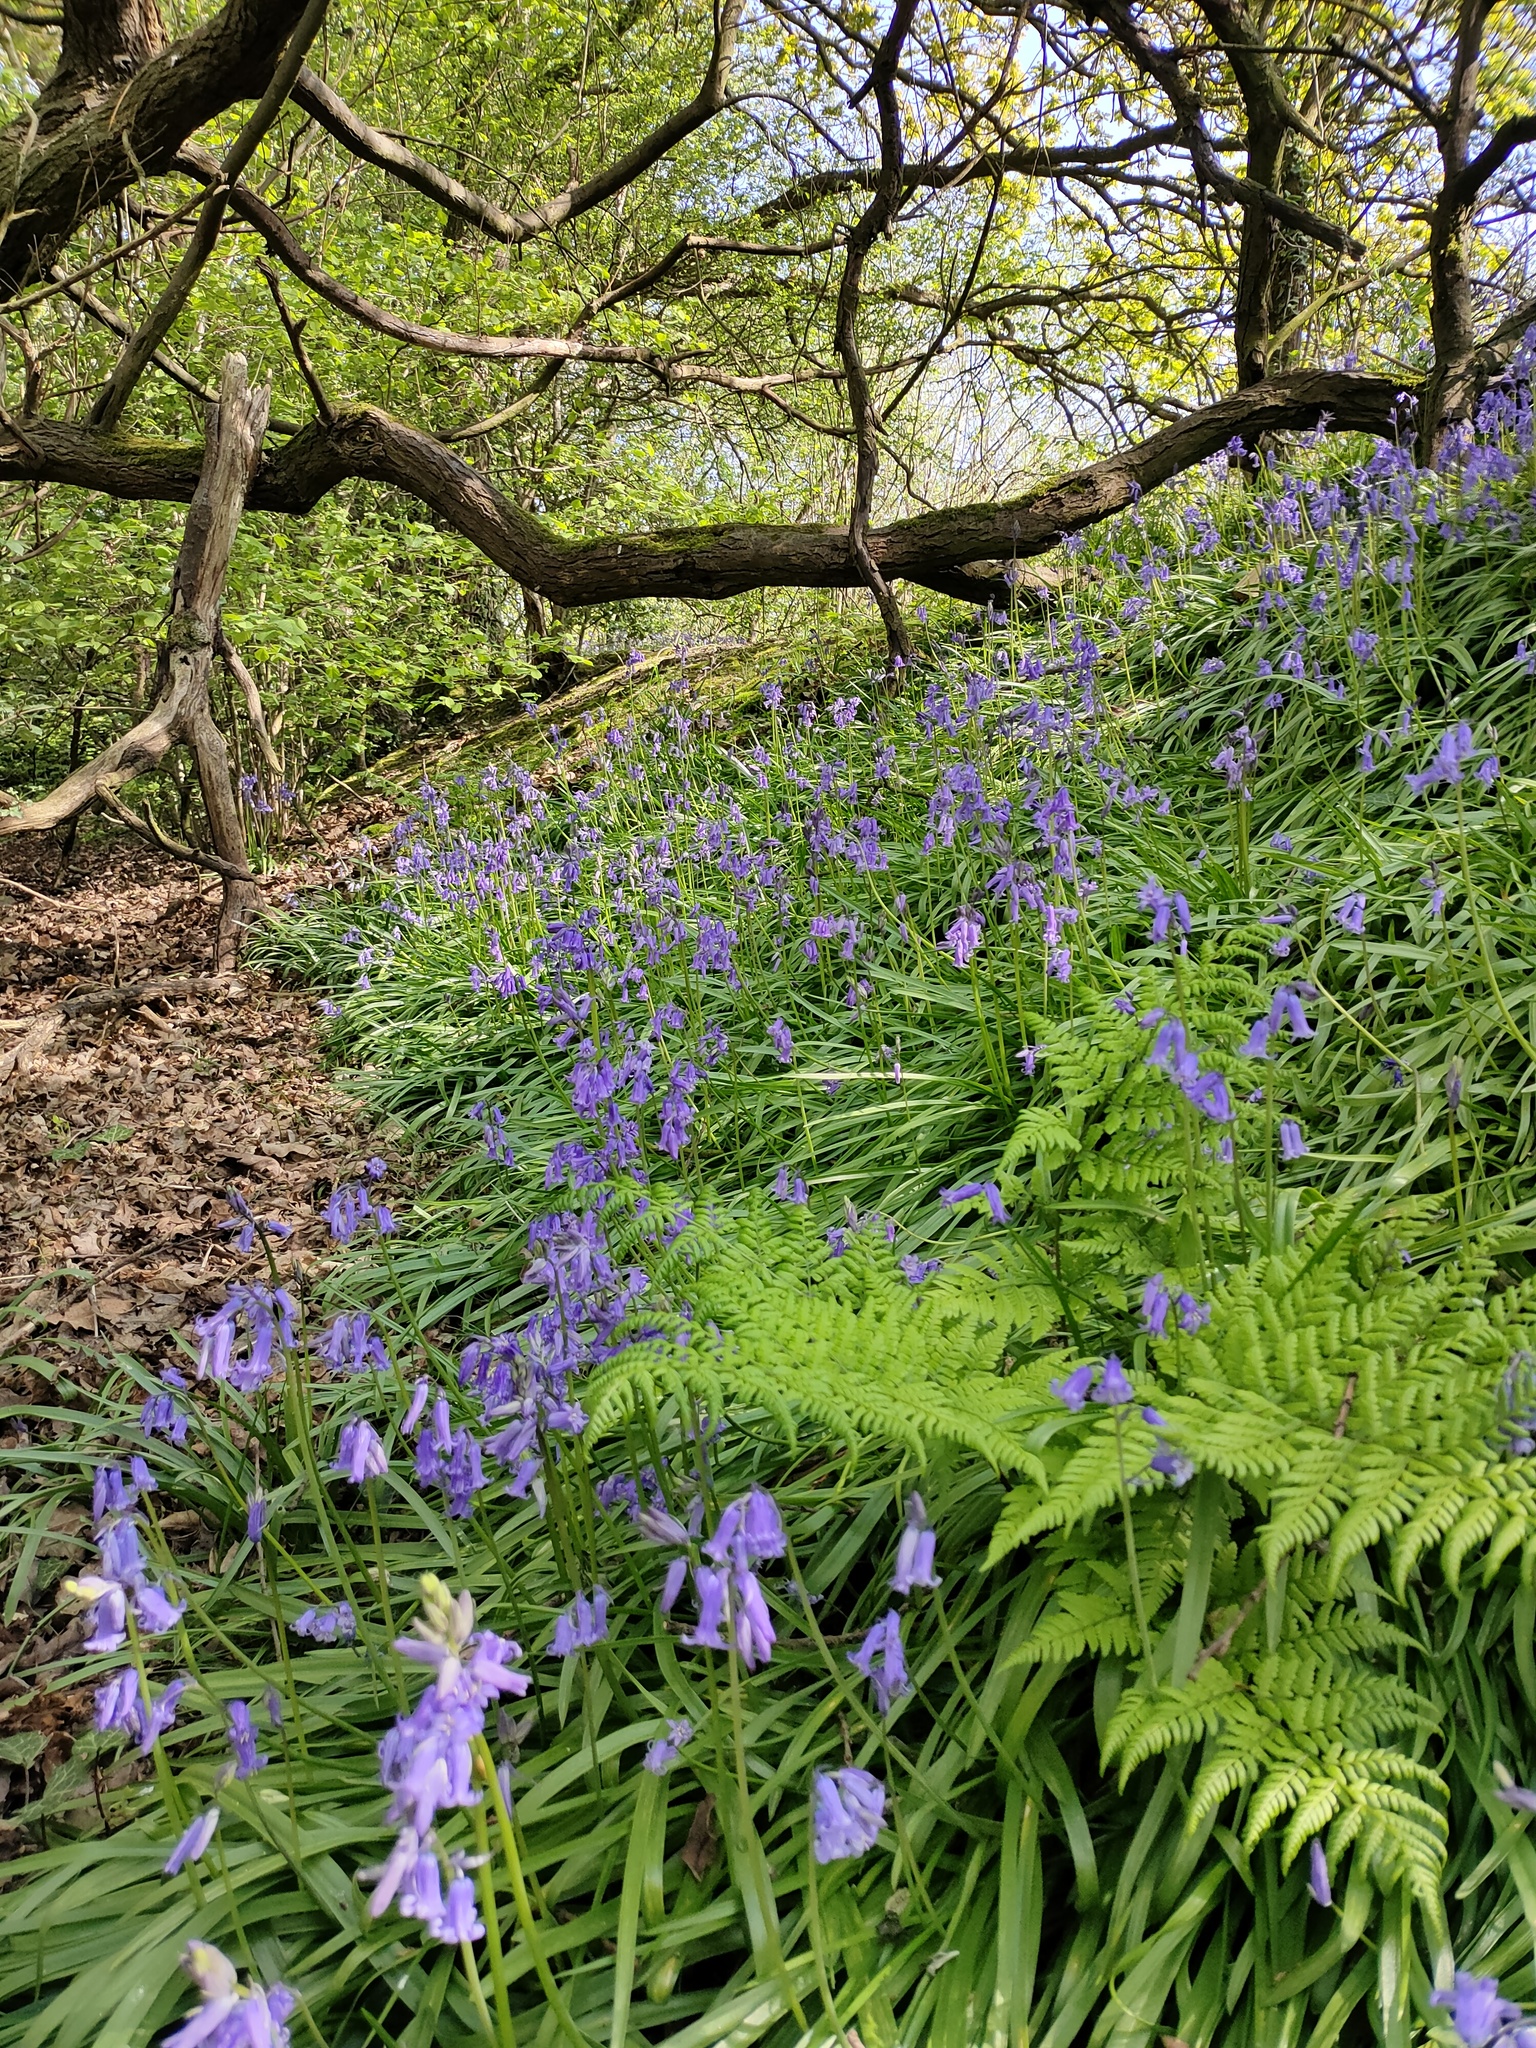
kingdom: Plantae
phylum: Tracheophyta
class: Liliopsida
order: Asparagales
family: Asparagaceae
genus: Hyacinthoides
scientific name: Hyacinthoides non-scripta
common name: Bluebell
